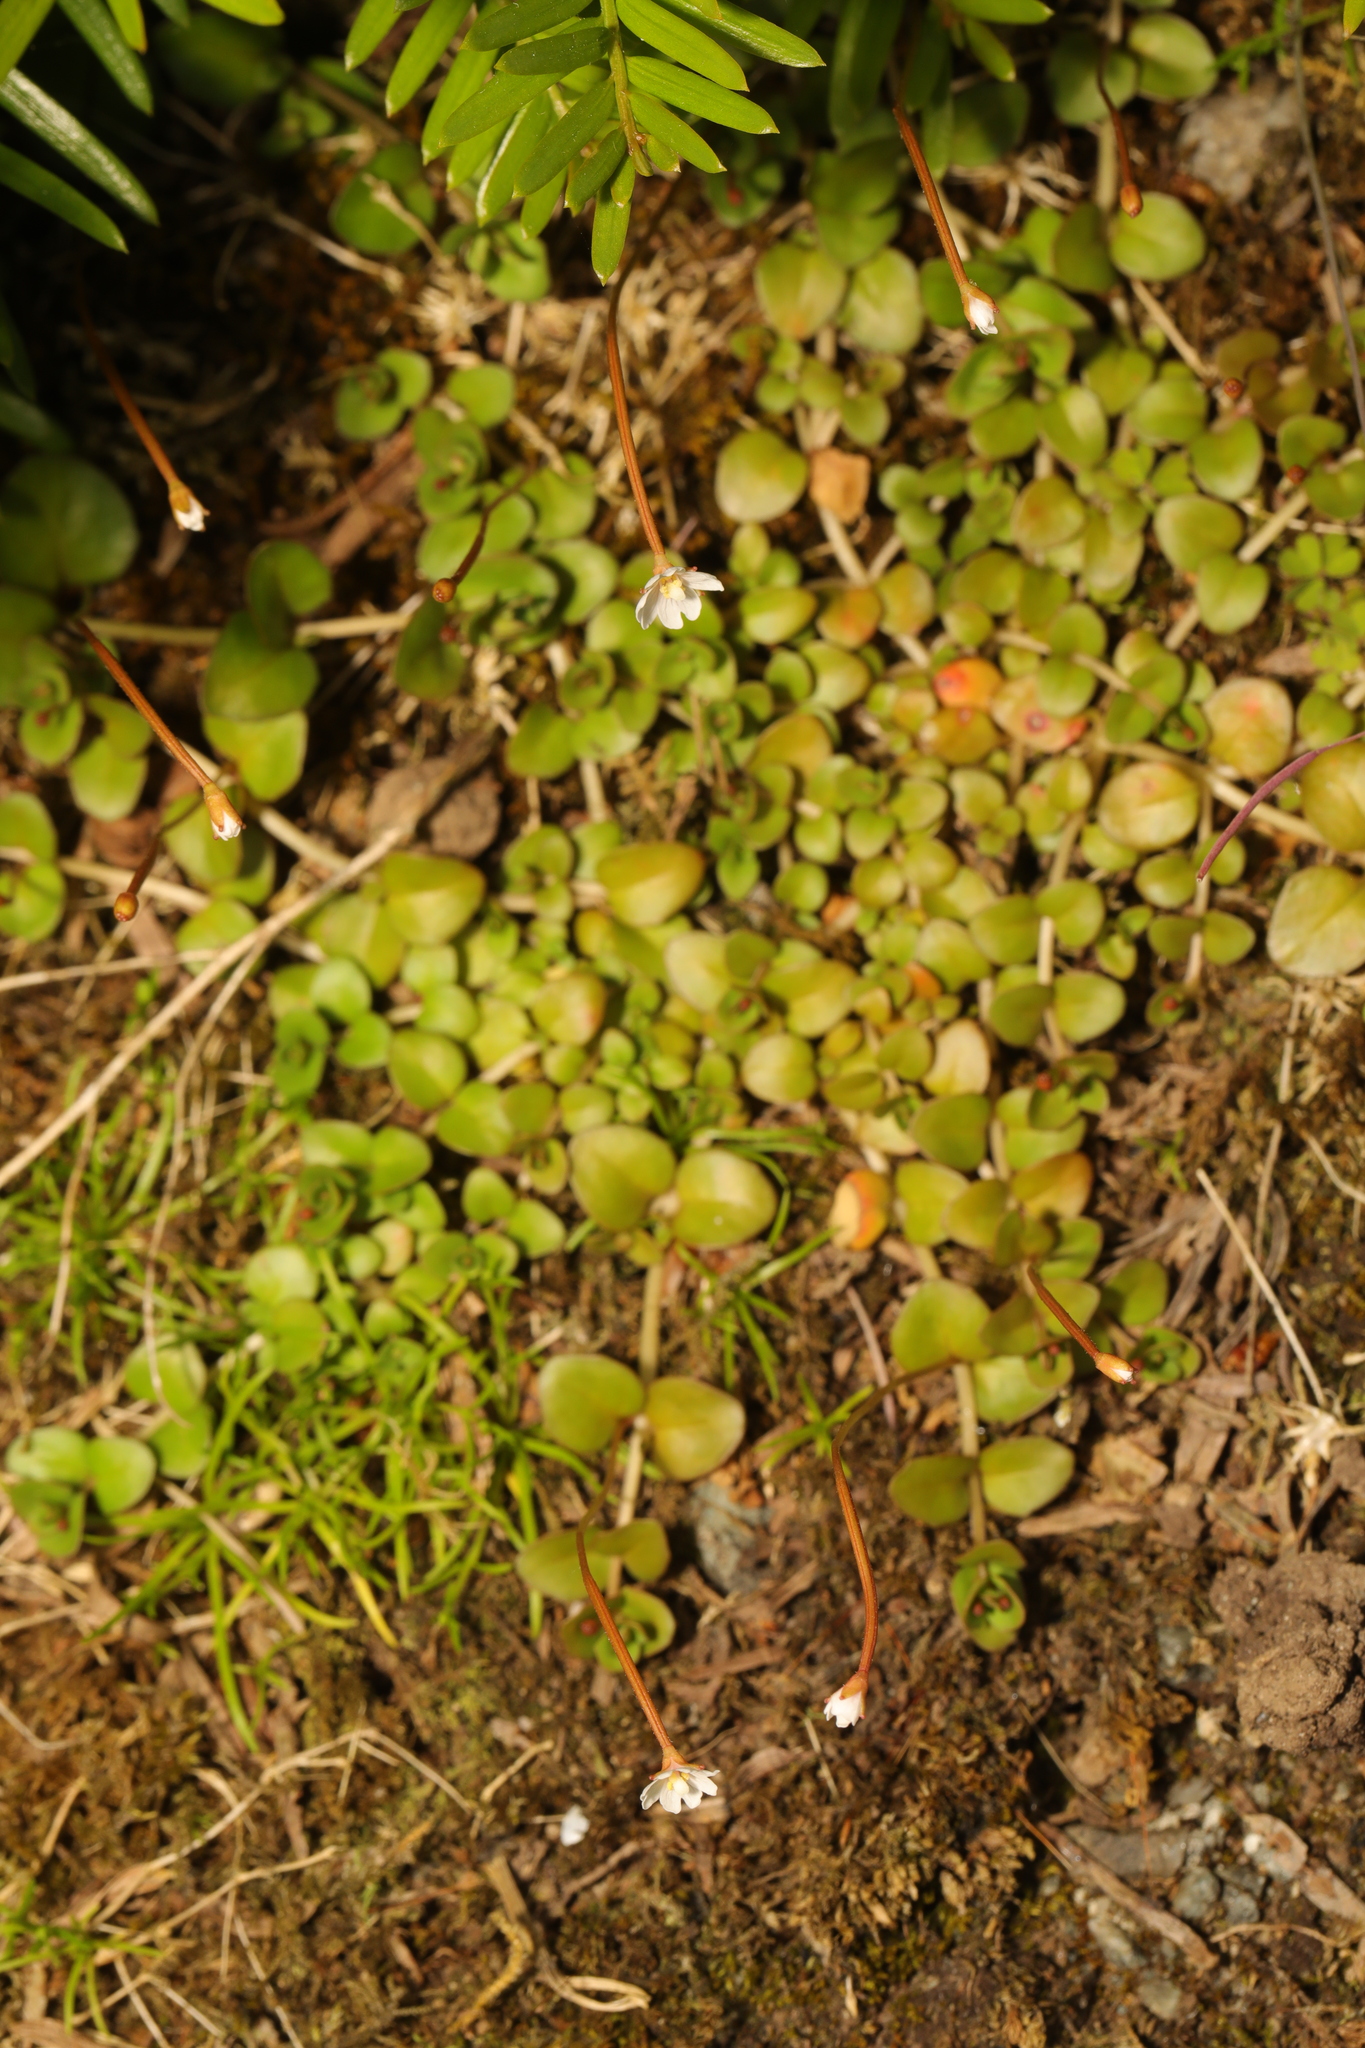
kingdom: Plantae
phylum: Tracheophyta
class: Magnoliopsida
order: Myrtales
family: Onagraceae
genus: Epilobium
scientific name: Epilobium brunnescens
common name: New zealand willowherb
